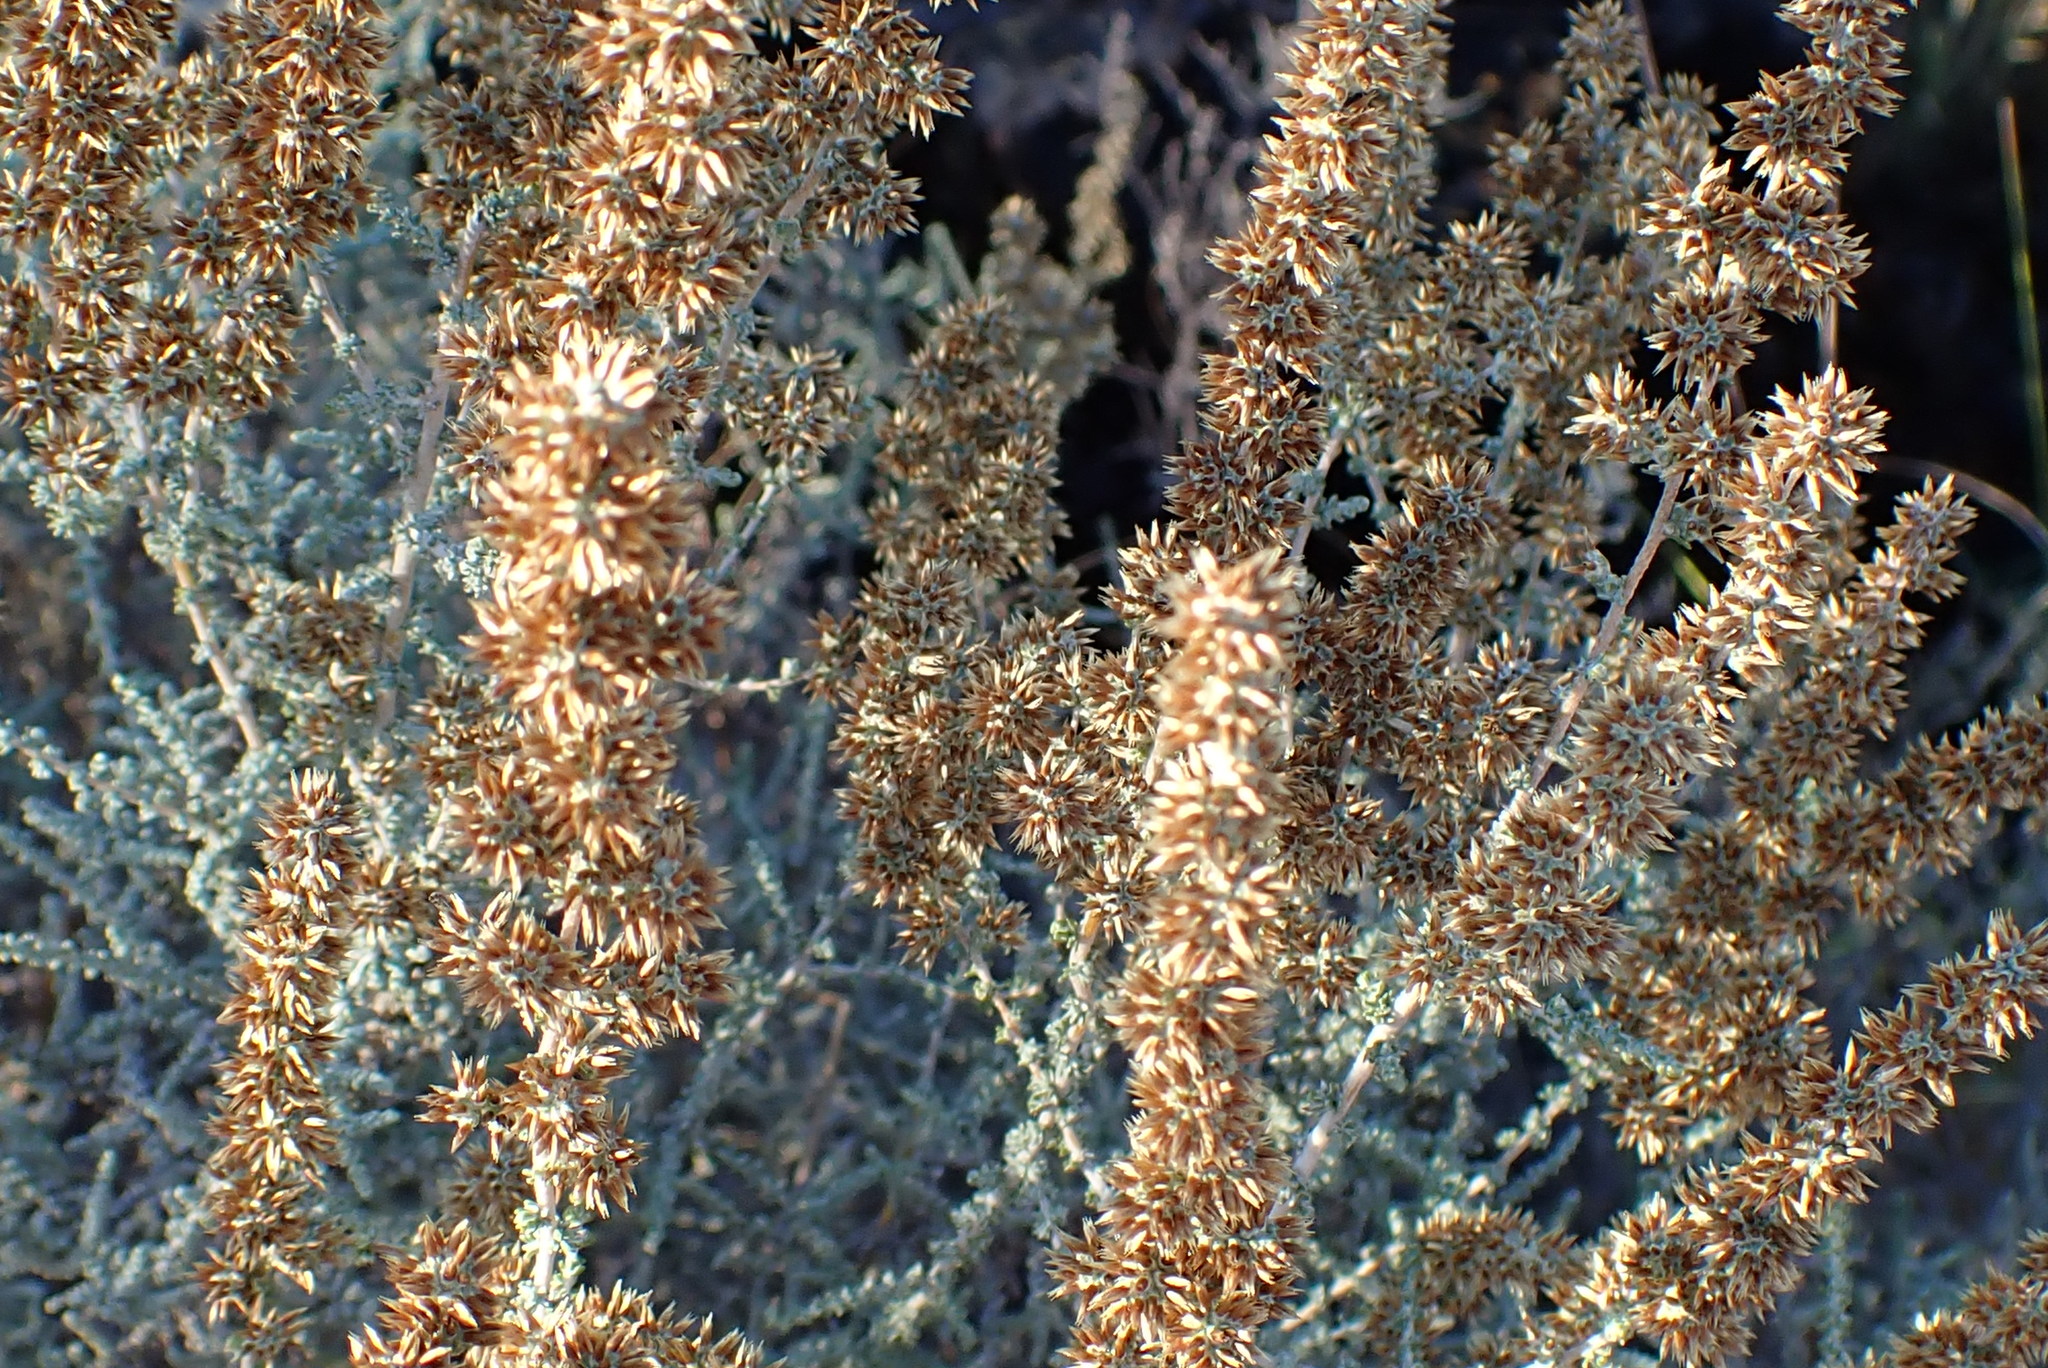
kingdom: Plantae
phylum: Tracheophyta
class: Magnoliopsida
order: Asterales
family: Asteraceae
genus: Seriphium
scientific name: Seriphium plumosum
